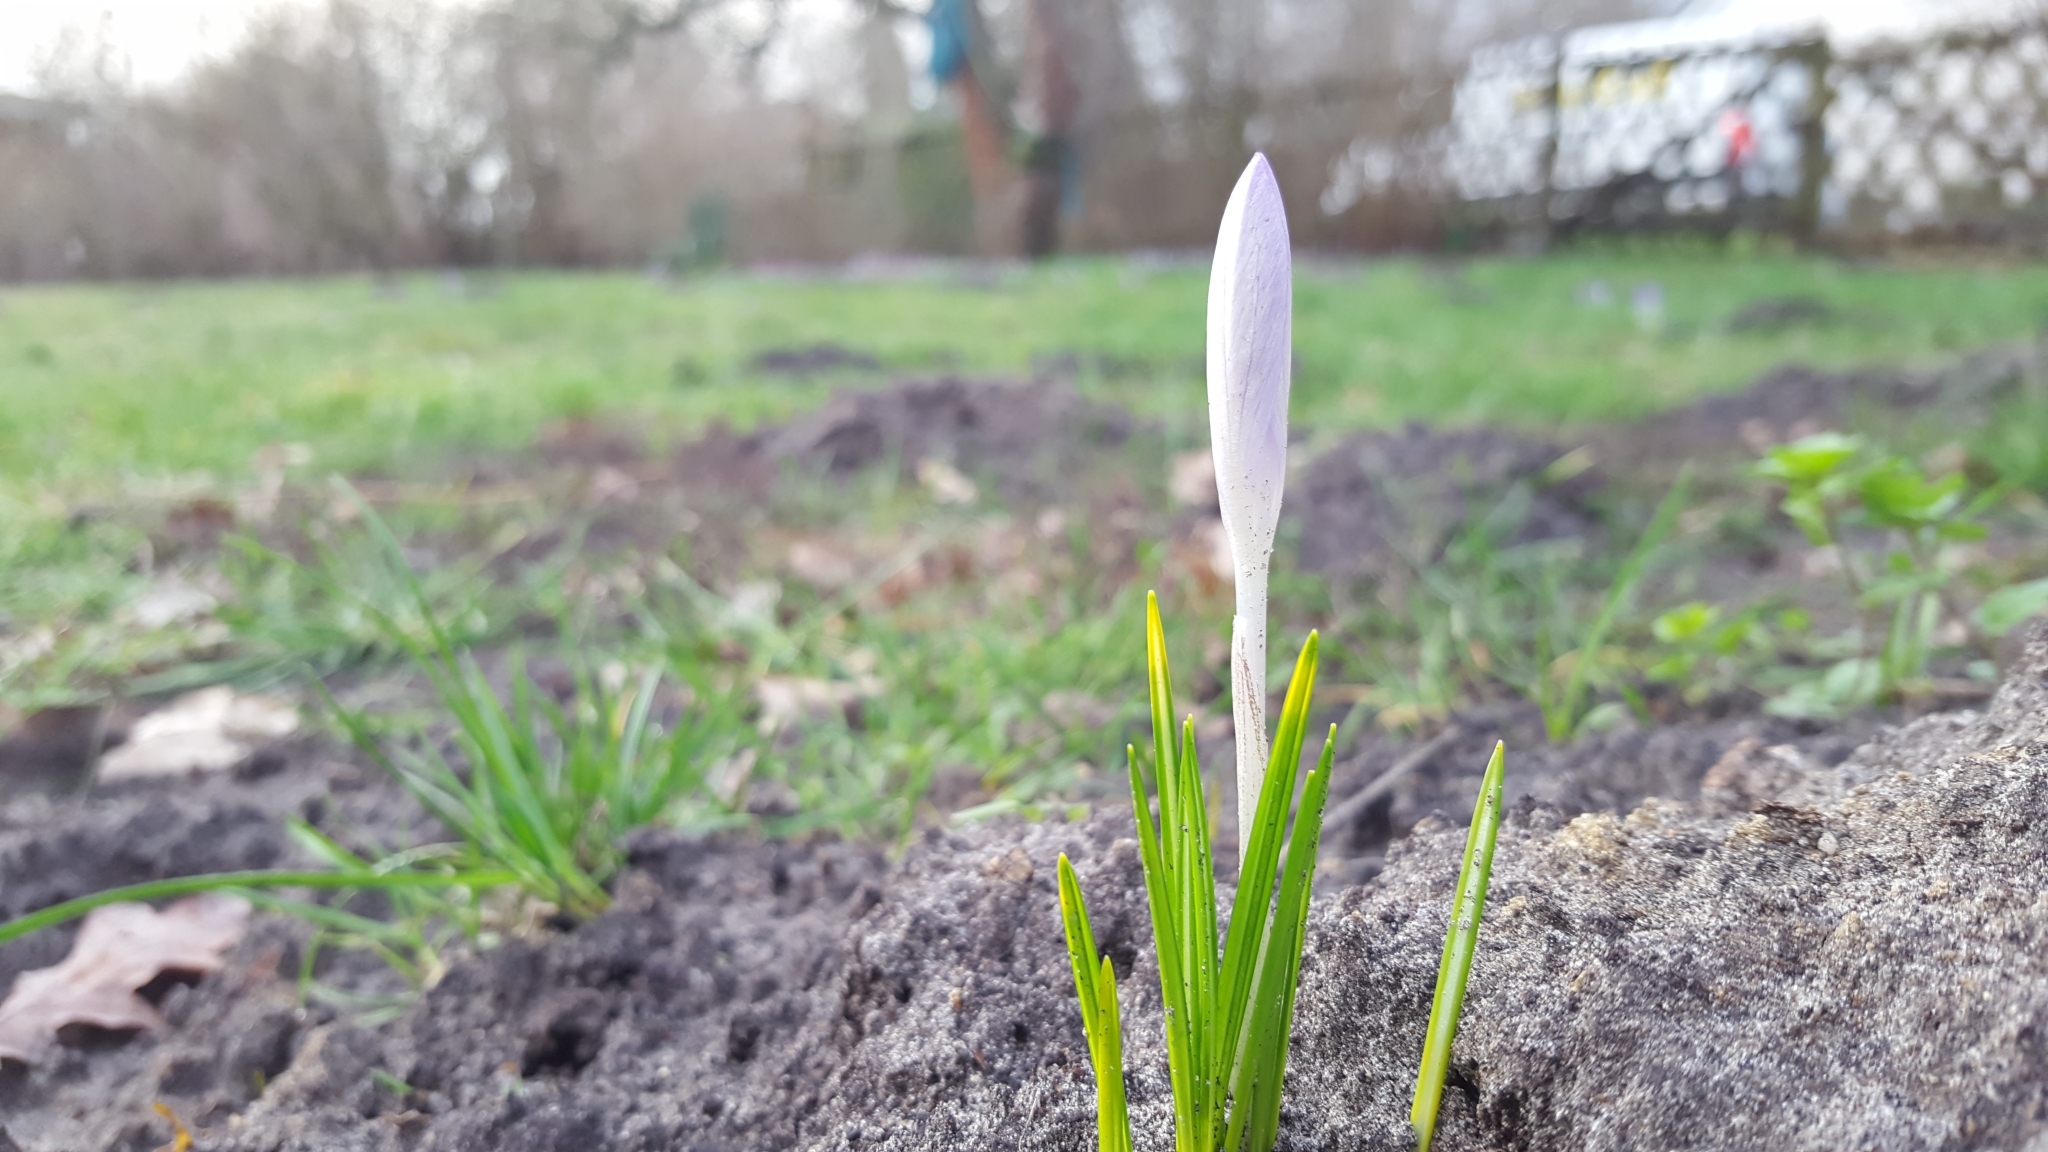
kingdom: Plantae
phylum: Tracheophyta
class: Liliopsida
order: Asparagales
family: Iridaceae
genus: Crocus
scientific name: Crocus tommasinianus
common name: Early crocus
